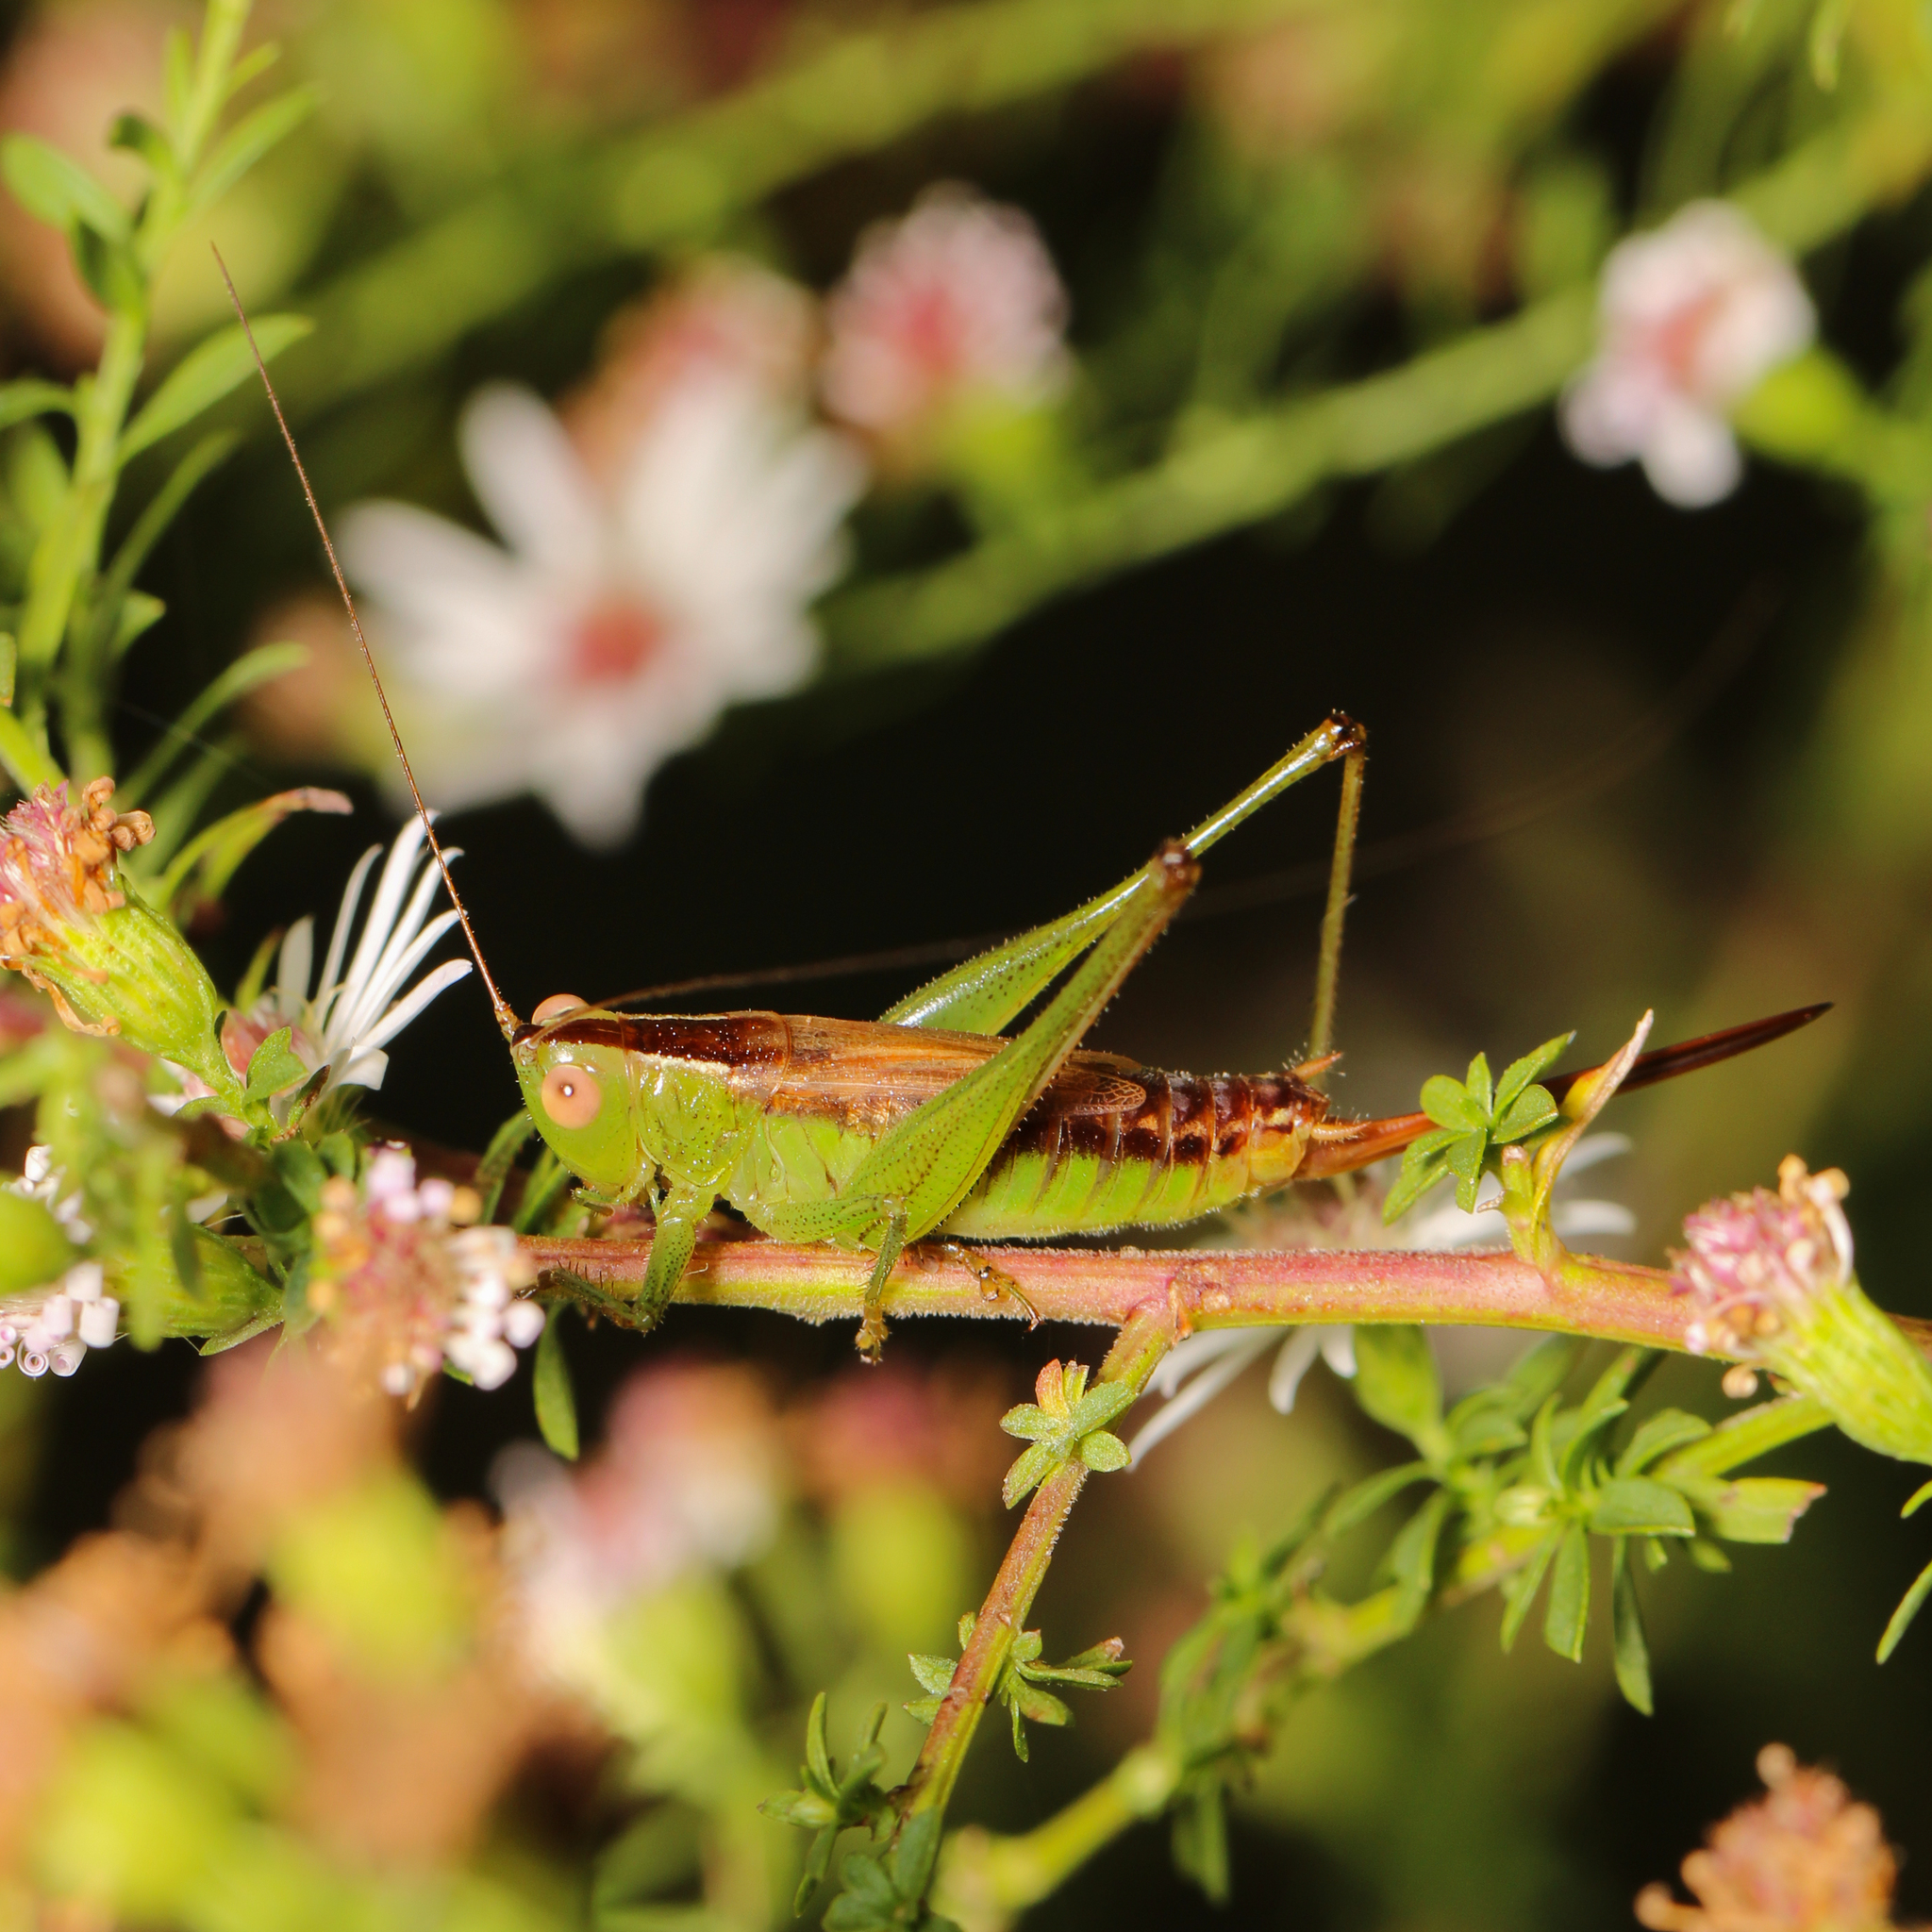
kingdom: Animalia
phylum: Arthropoda
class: Insecta
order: Orthoptera
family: Tettigoniidae
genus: Conocephalus
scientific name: Conocephalus brevipennis
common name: Short-winged meadow katydid
